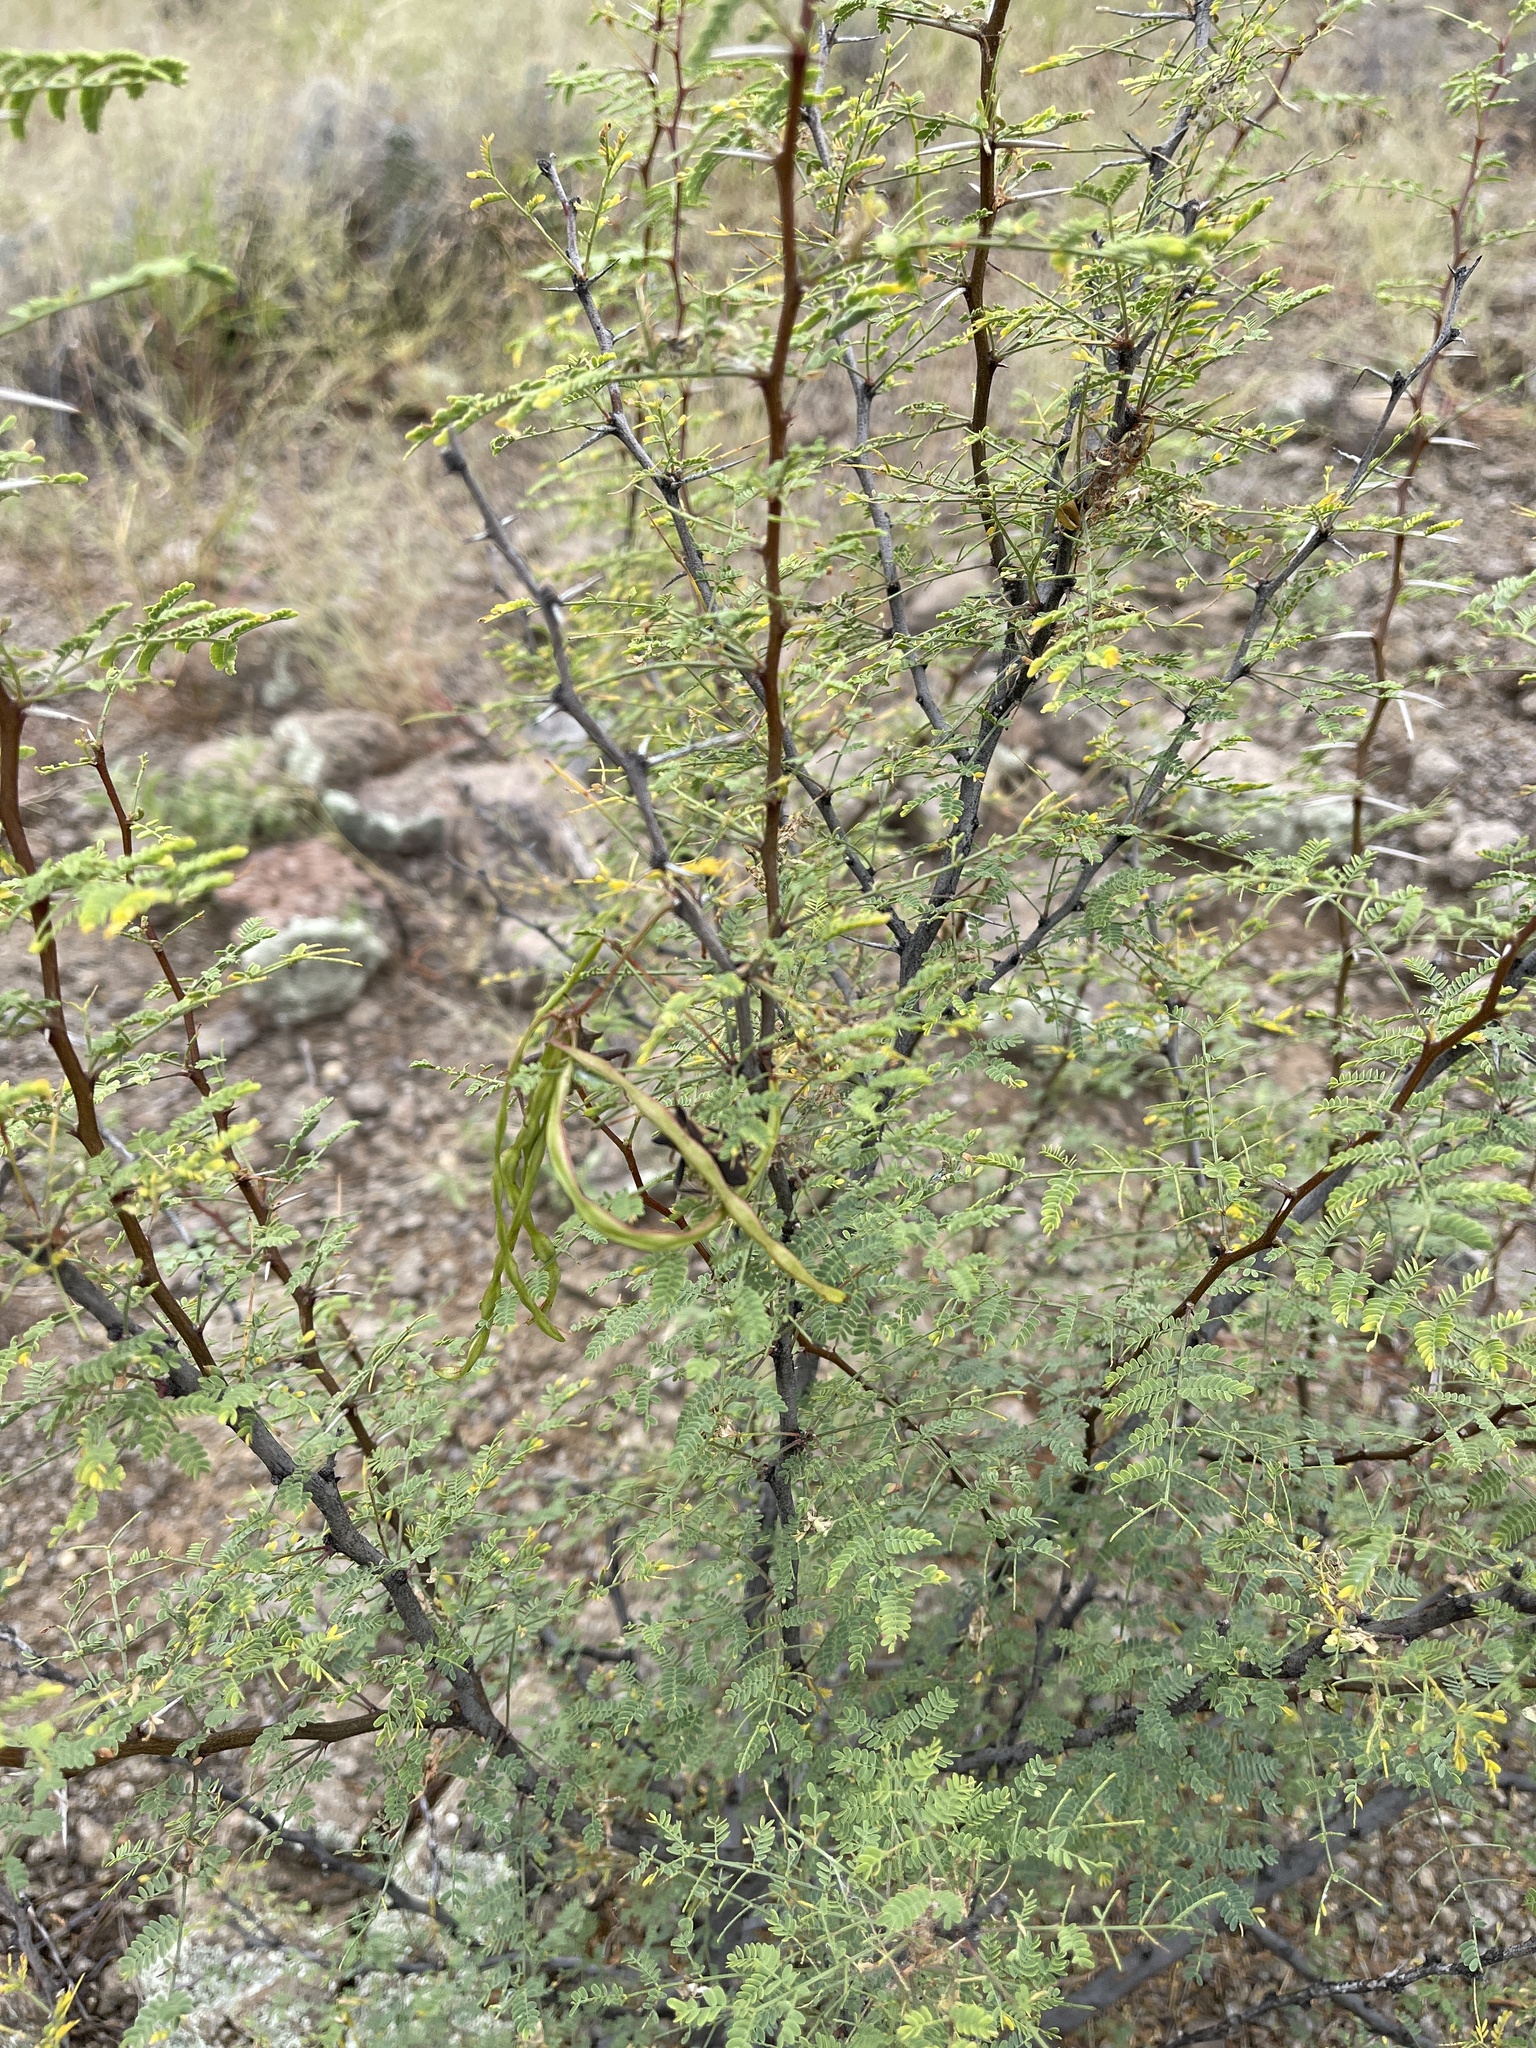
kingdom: Plantae
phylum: Tracheophyta
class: Magnoliopsida
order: Fabales
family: Fabaceae
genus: Vachellia
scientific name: Vachellia constricta
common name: Mescat acacia
